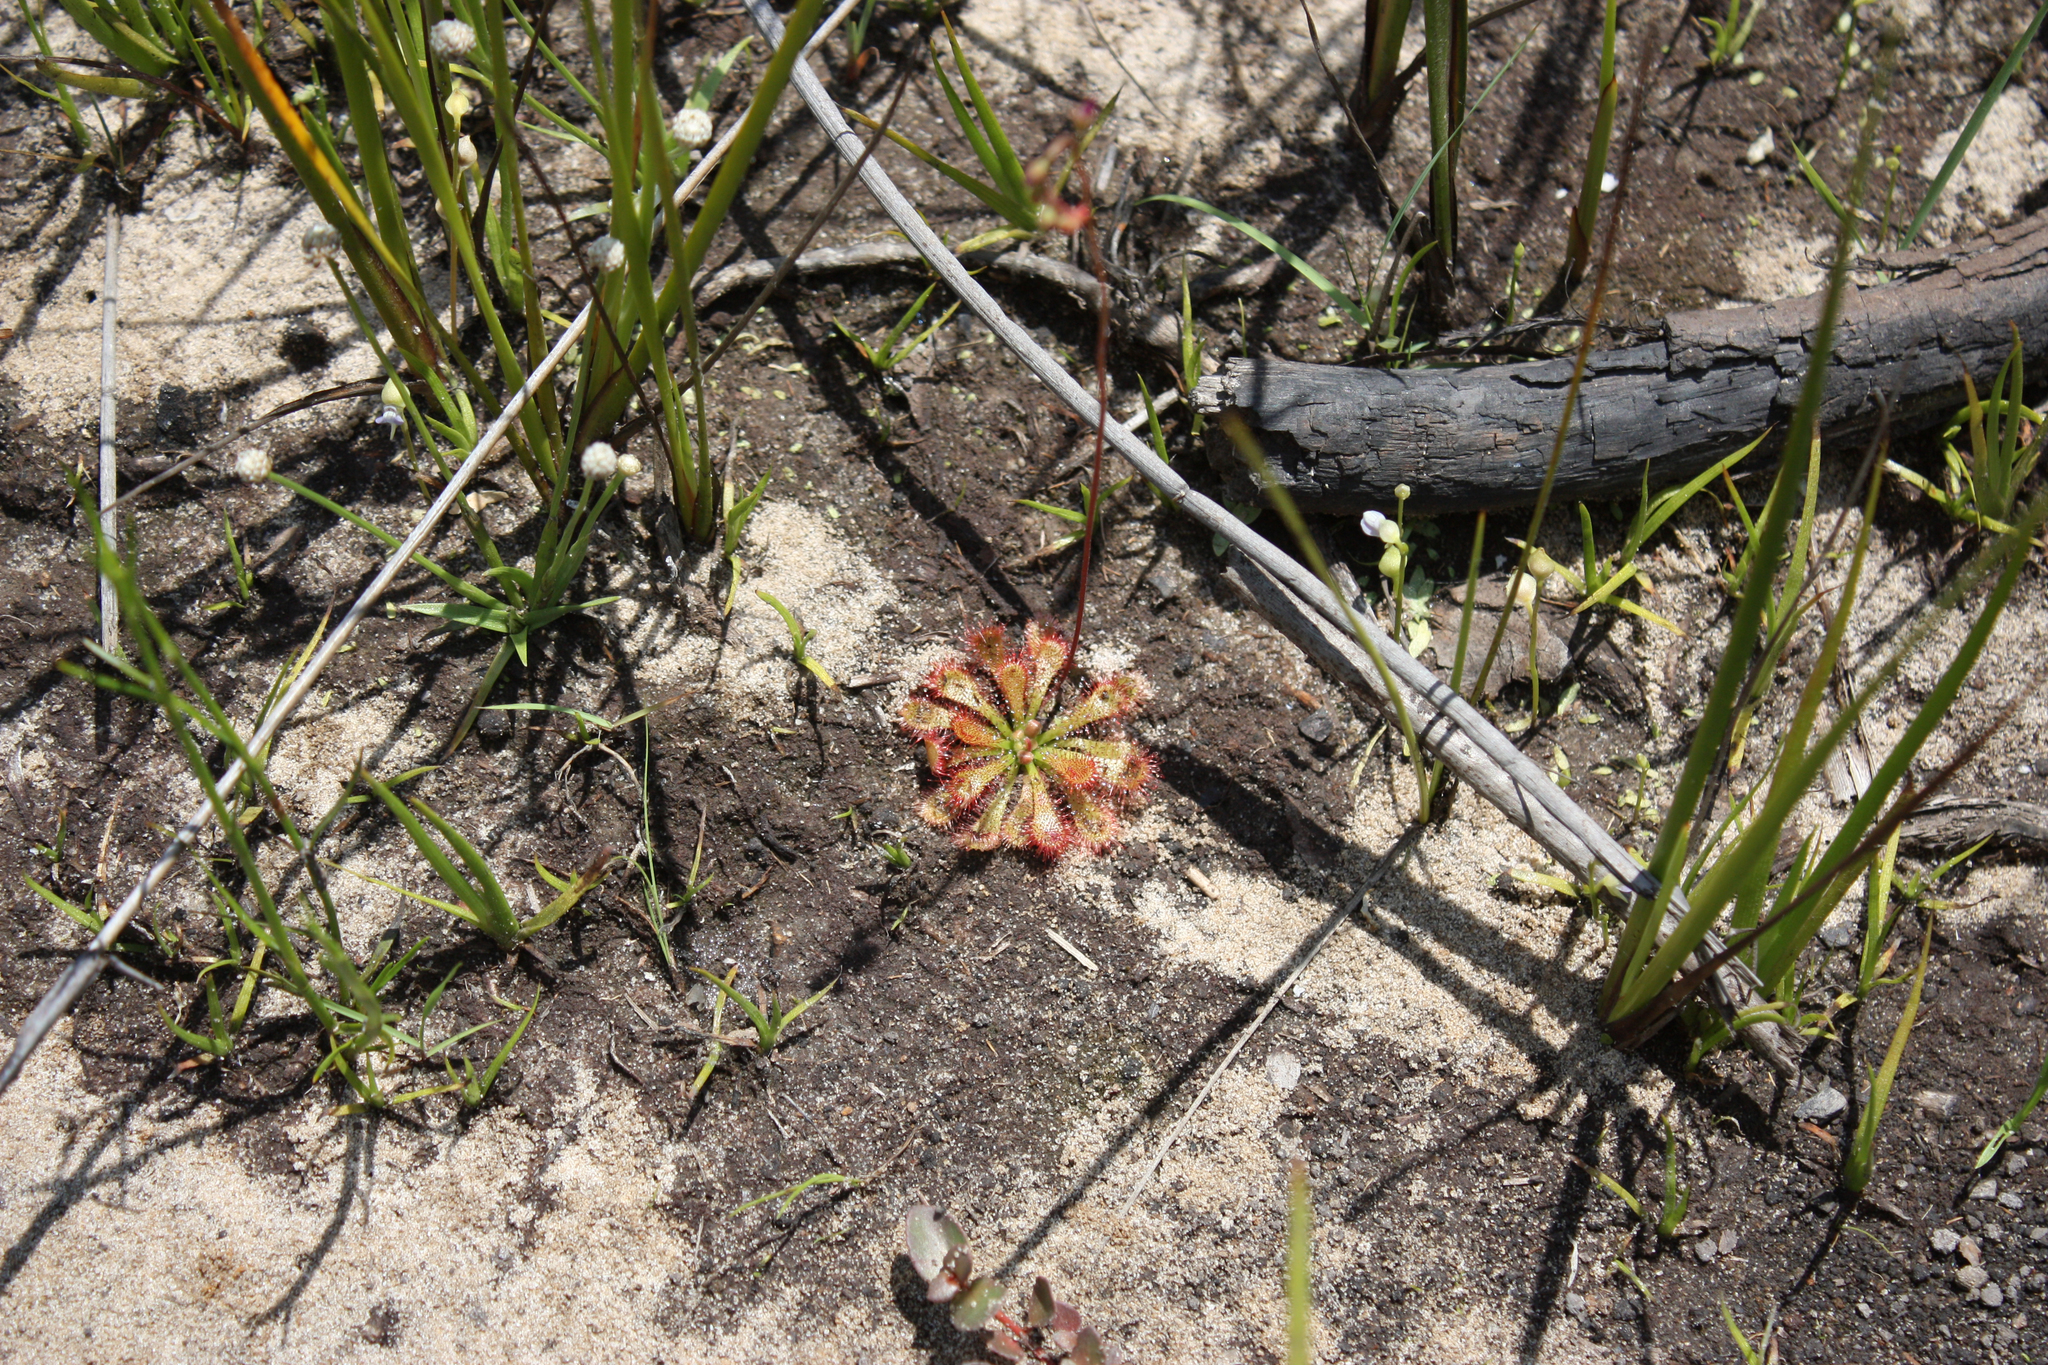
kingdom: Plantae
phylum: Tracheophyta
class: Magnoliopsida
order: Caryophyllales
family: Droseraceae
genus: Drosera
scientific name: Drosera spatulata
